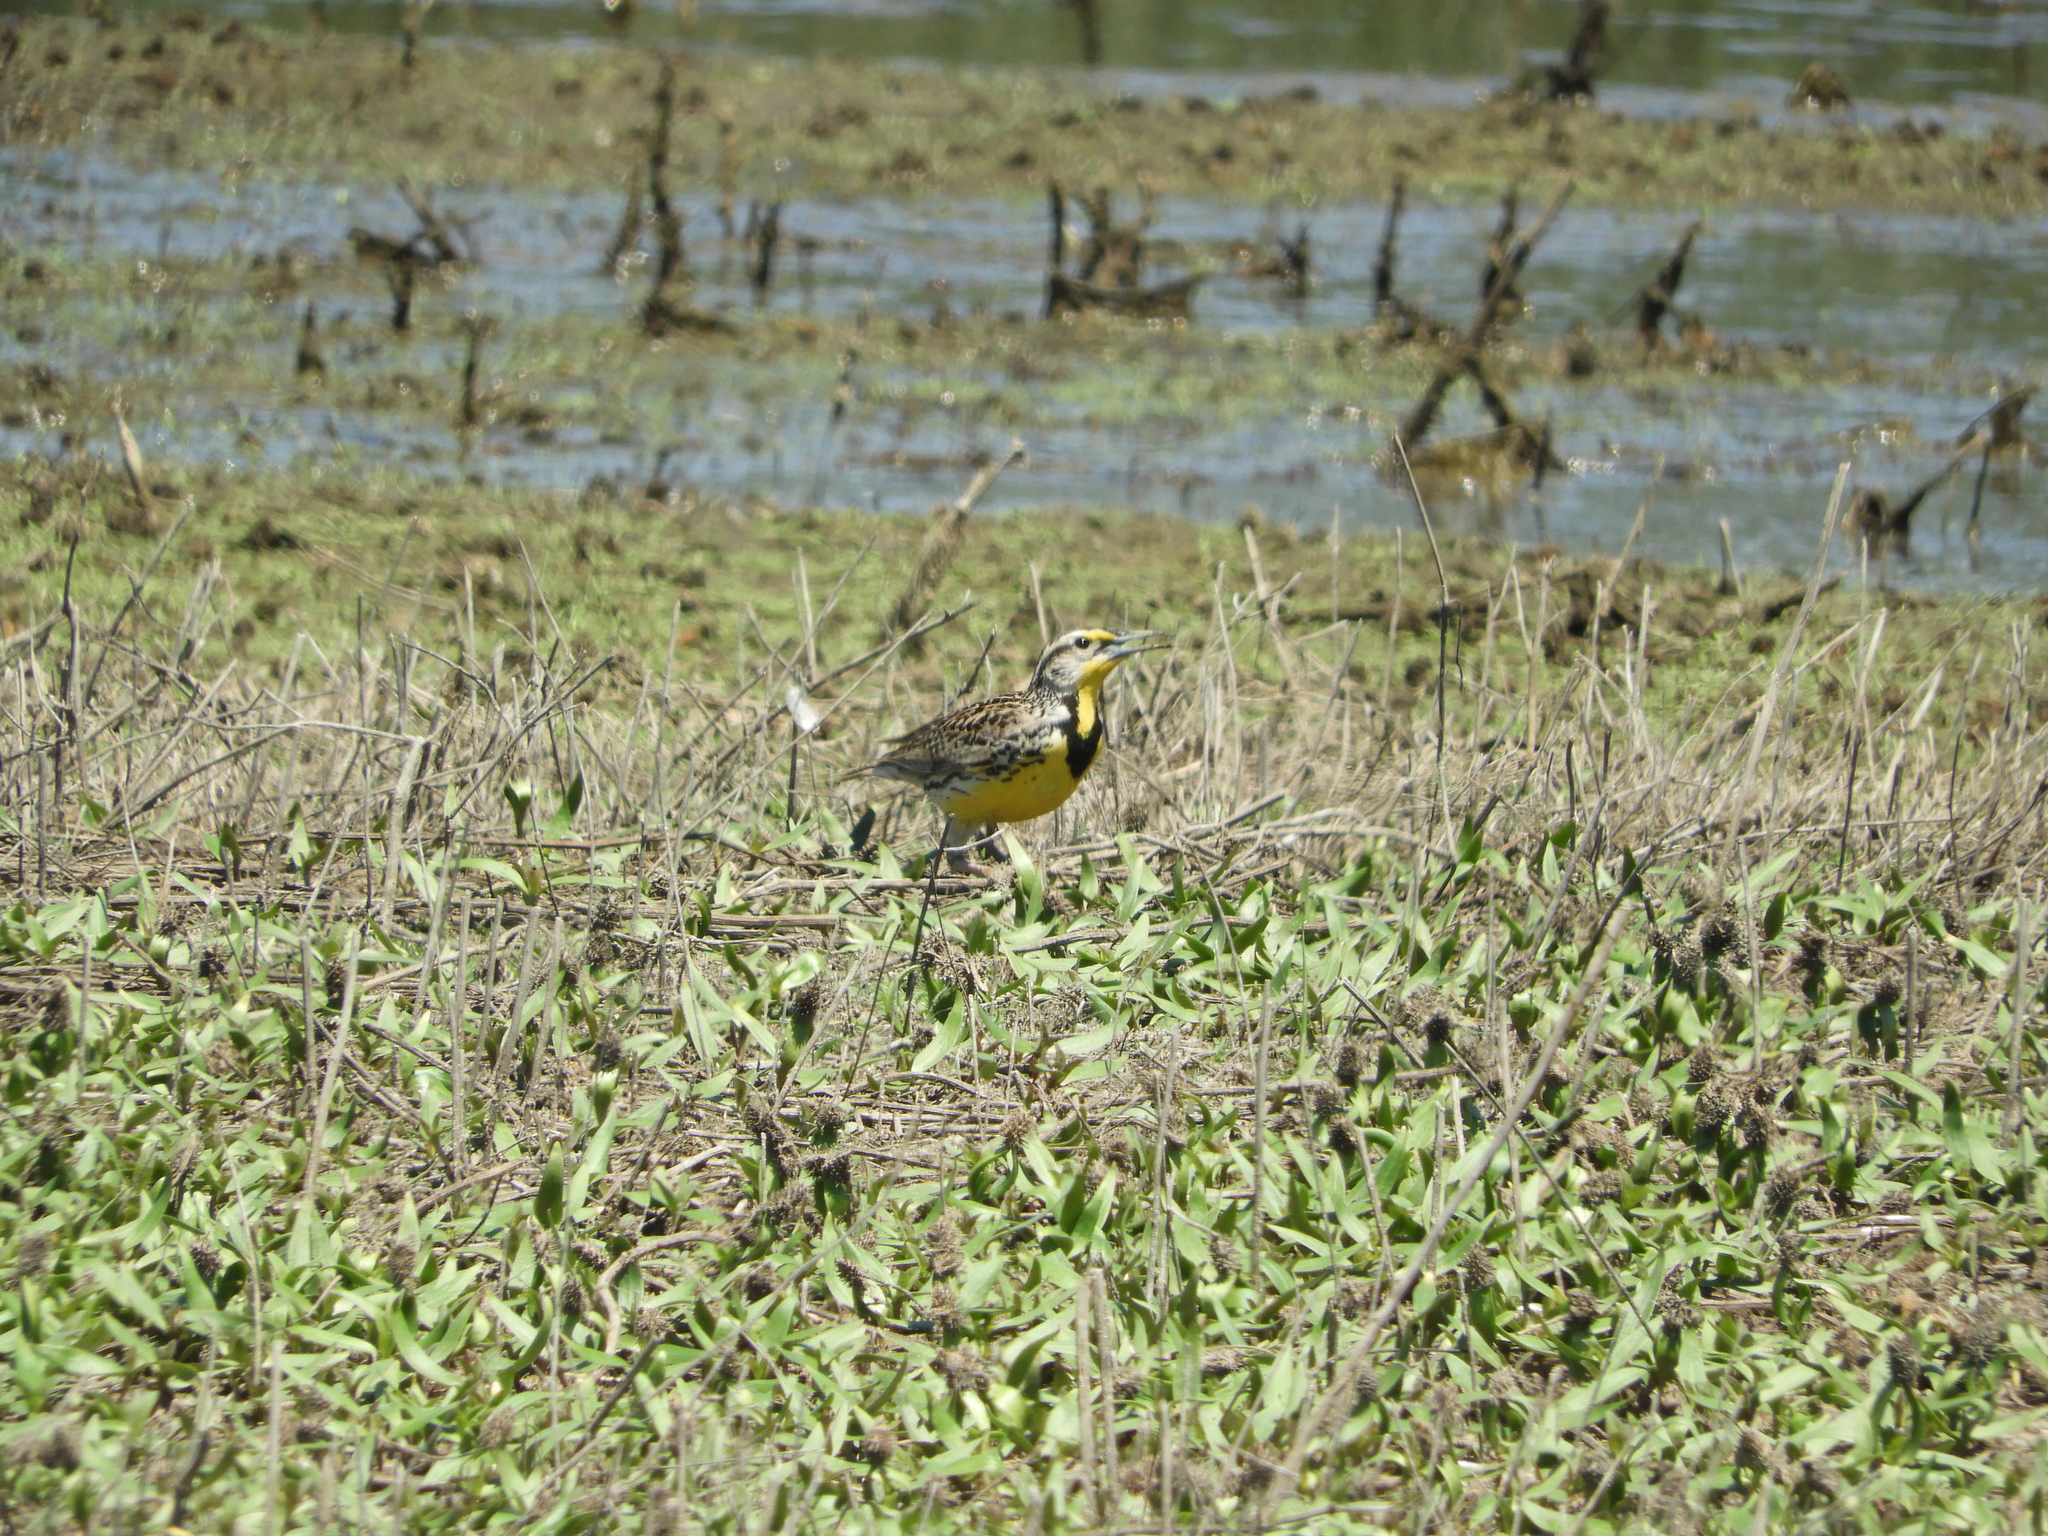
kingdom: Animalia
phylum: Chordata
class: Aves
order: Passeriformes
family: Icteridae
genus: Sturnella
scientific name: Sturnella neglecta
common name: Western meadowlark
